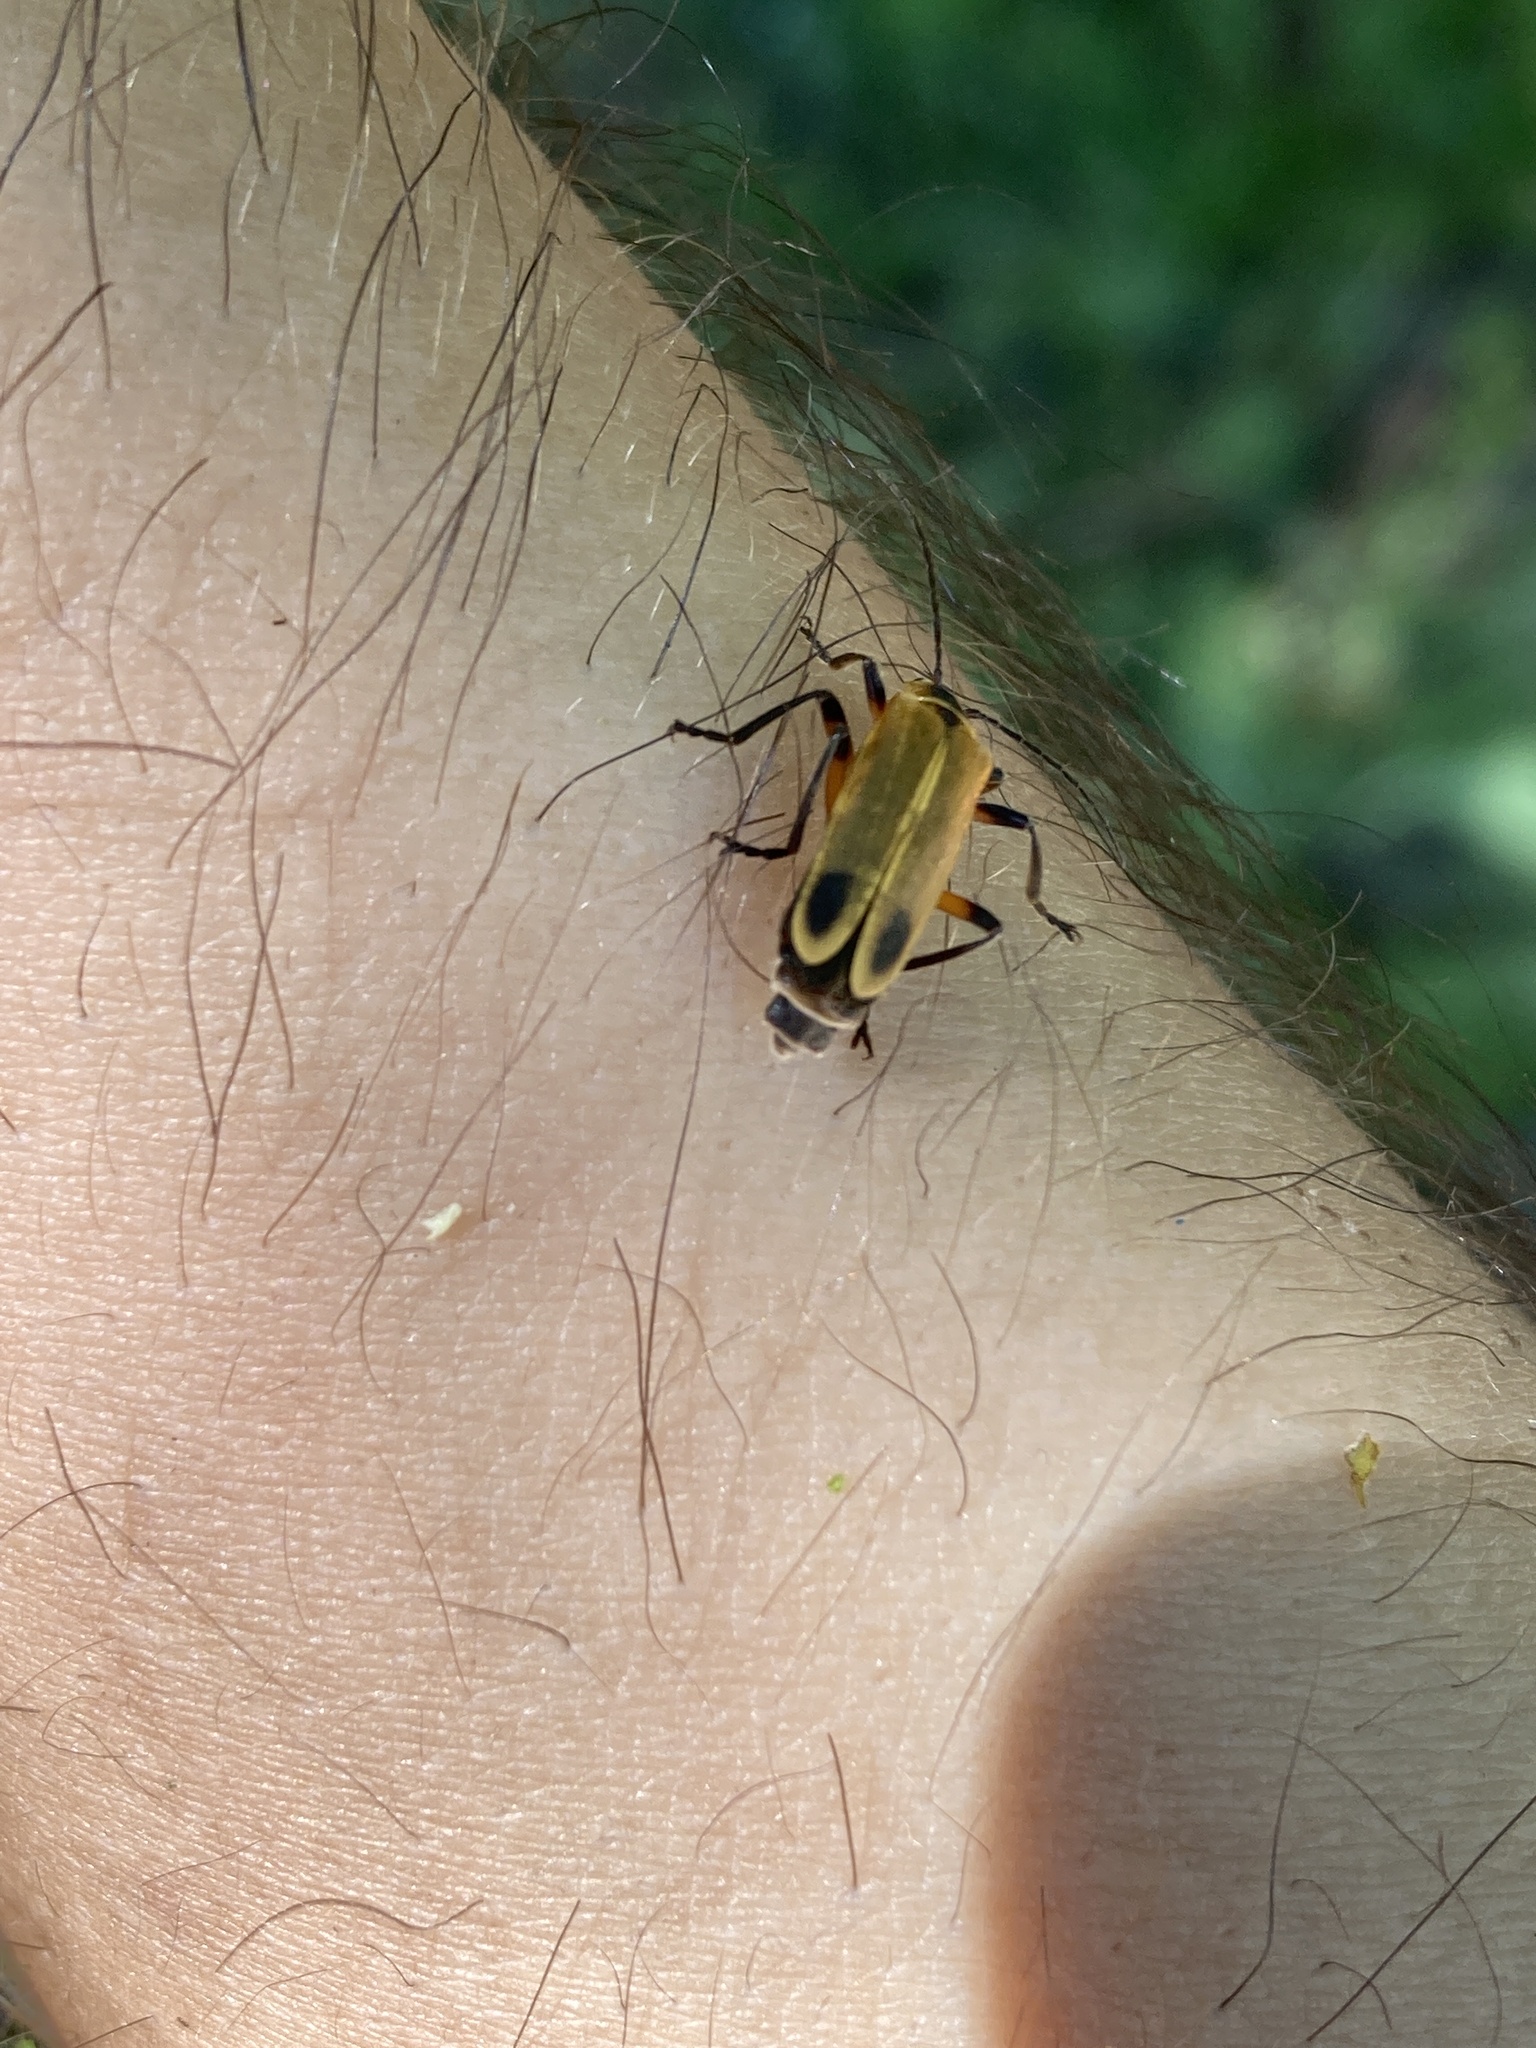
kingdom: Animalia
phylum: Arthropoda
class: Insecta
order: Coleoptera
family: Cantharidae
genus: Chauliognathus
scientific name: Chauliognathus marginatus
